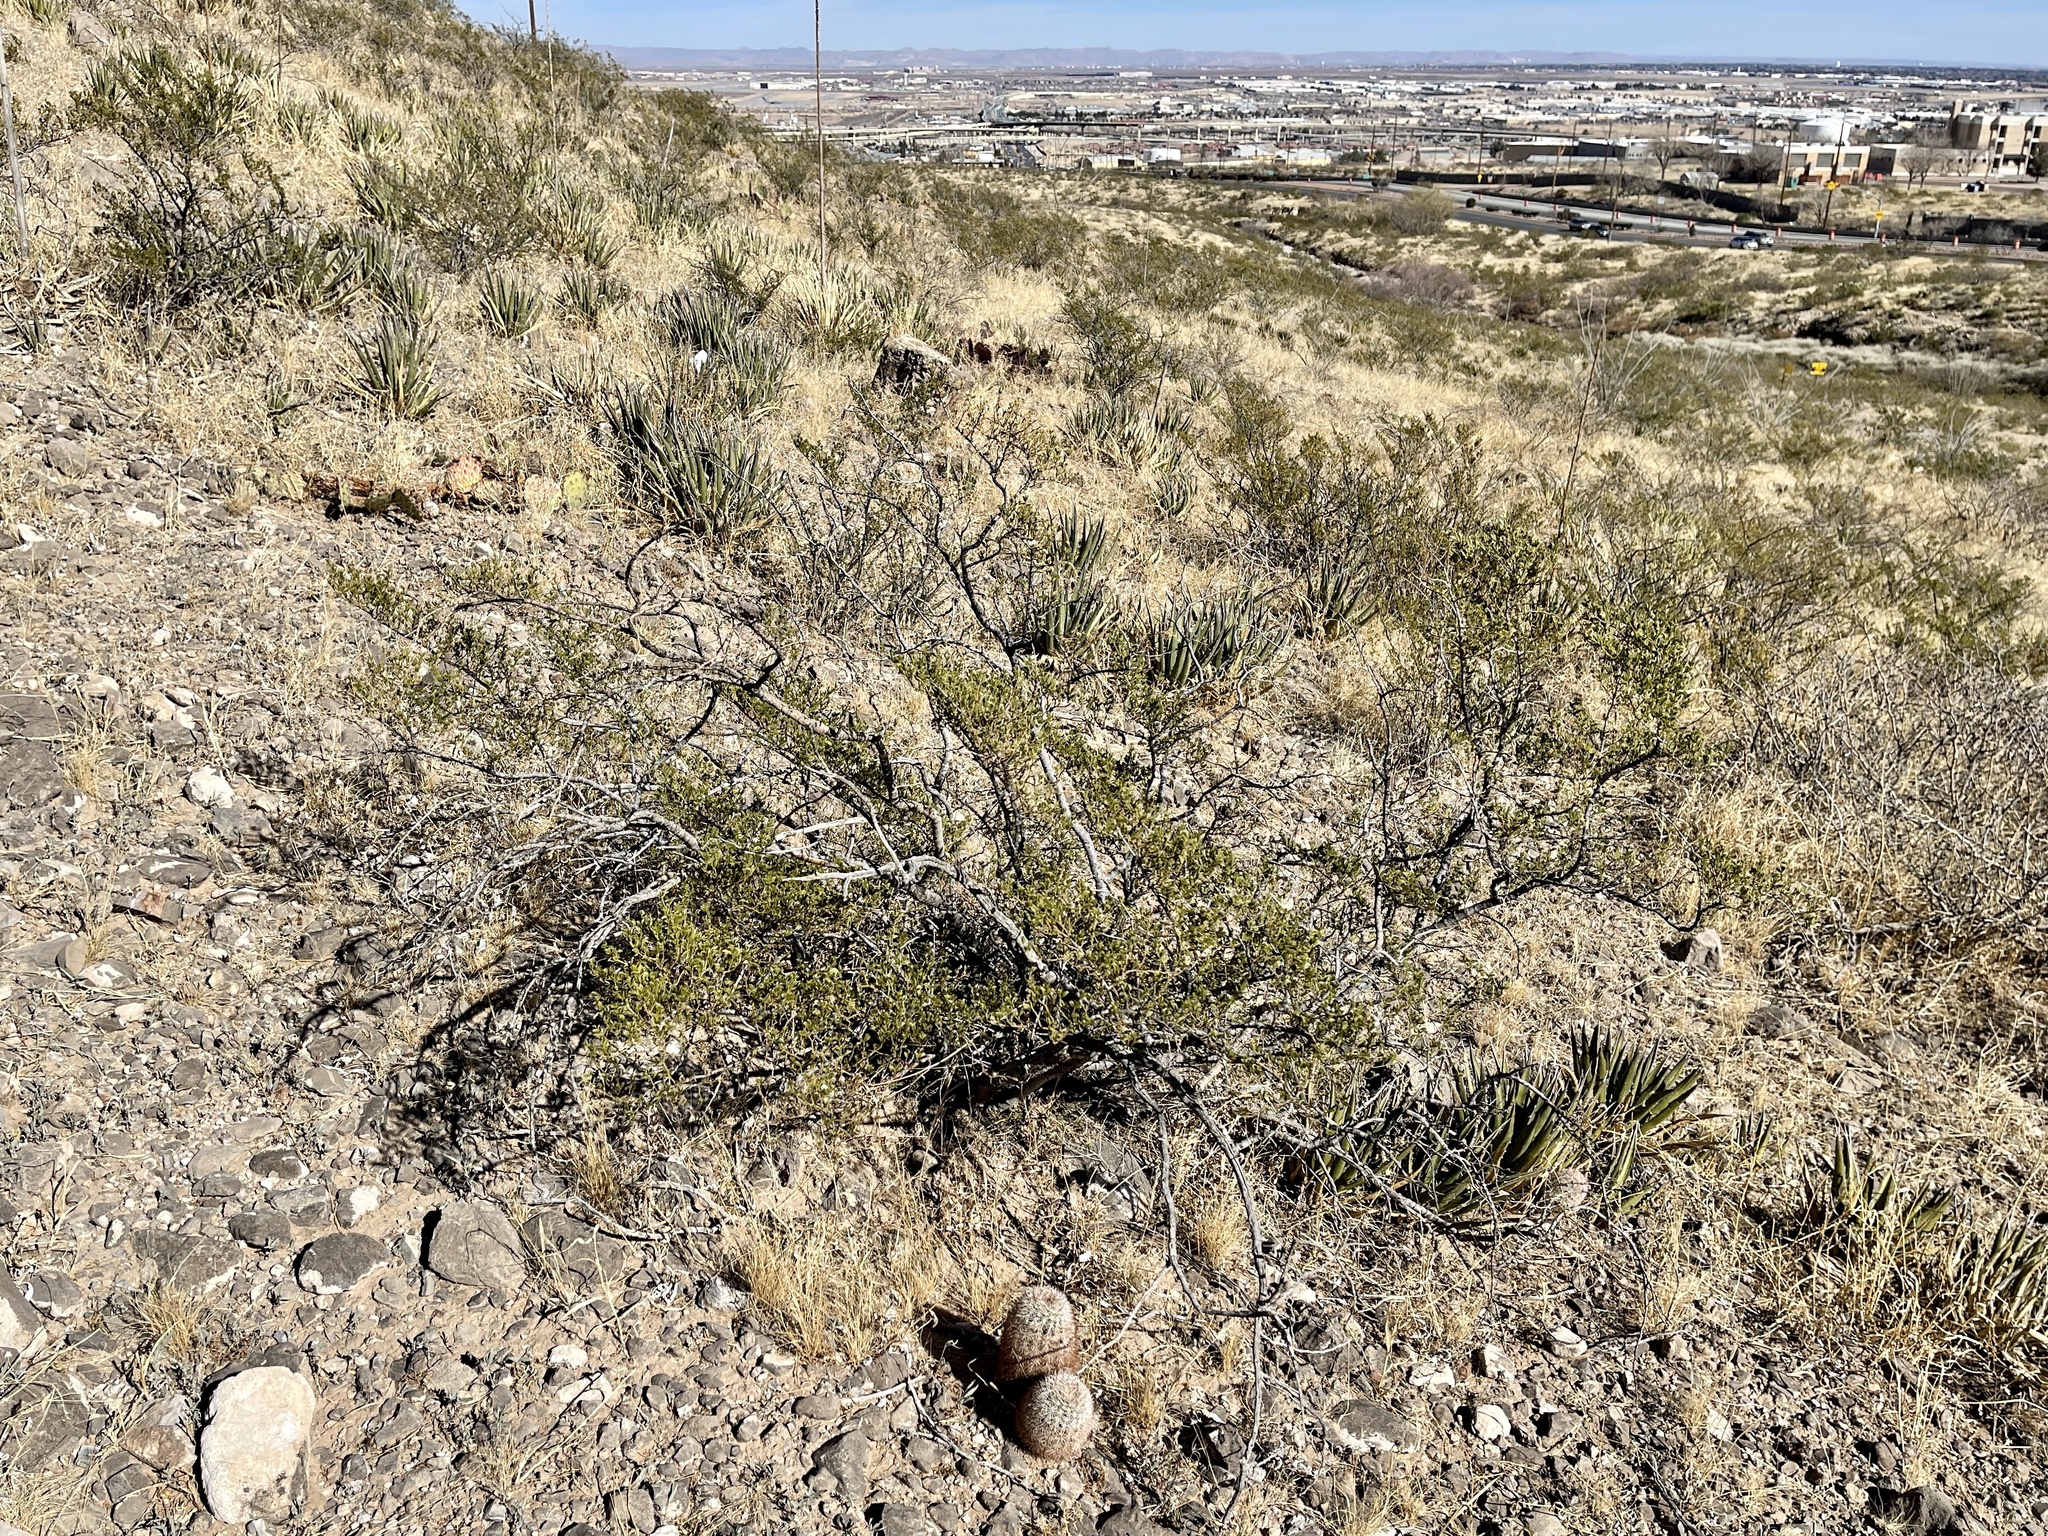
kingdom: Plantae
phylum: Tracheophyta
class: Magnoliopsida
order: Zygophyllales
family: Zygophyllaceae
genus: Larrea
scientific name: Larrea tridentata
